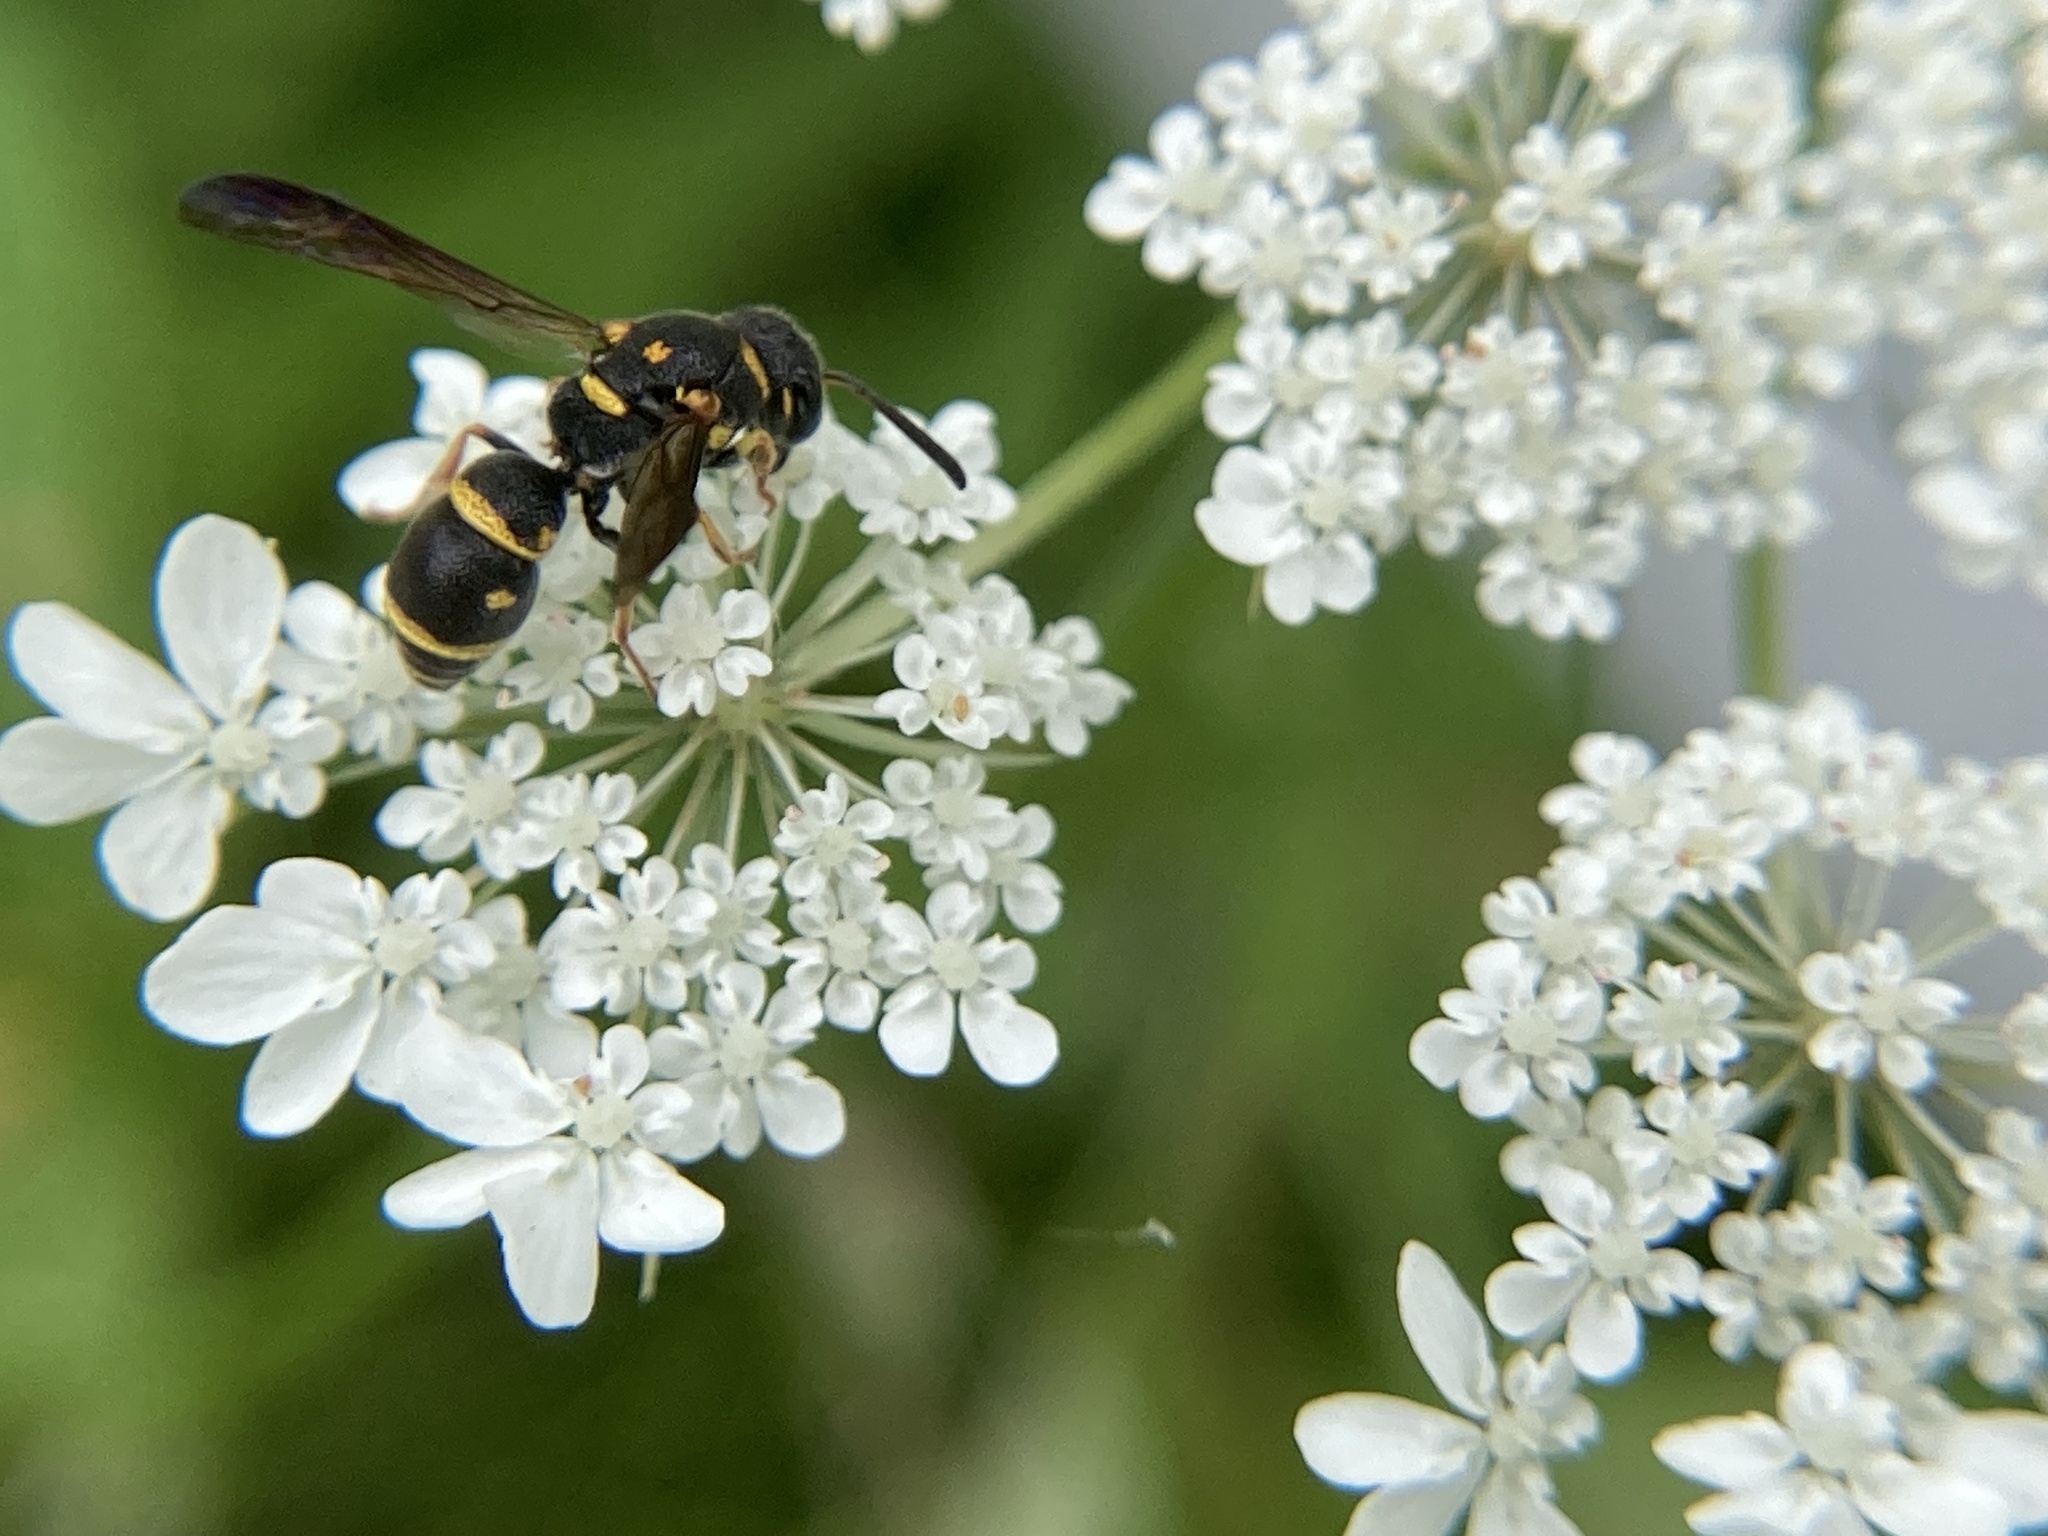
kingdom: Animalia
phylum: Arthropoda
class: Insecta
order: Hymenoptera
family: Eumenidae
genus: Parancistrocerus
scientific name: Parancistrocerus pedestris
